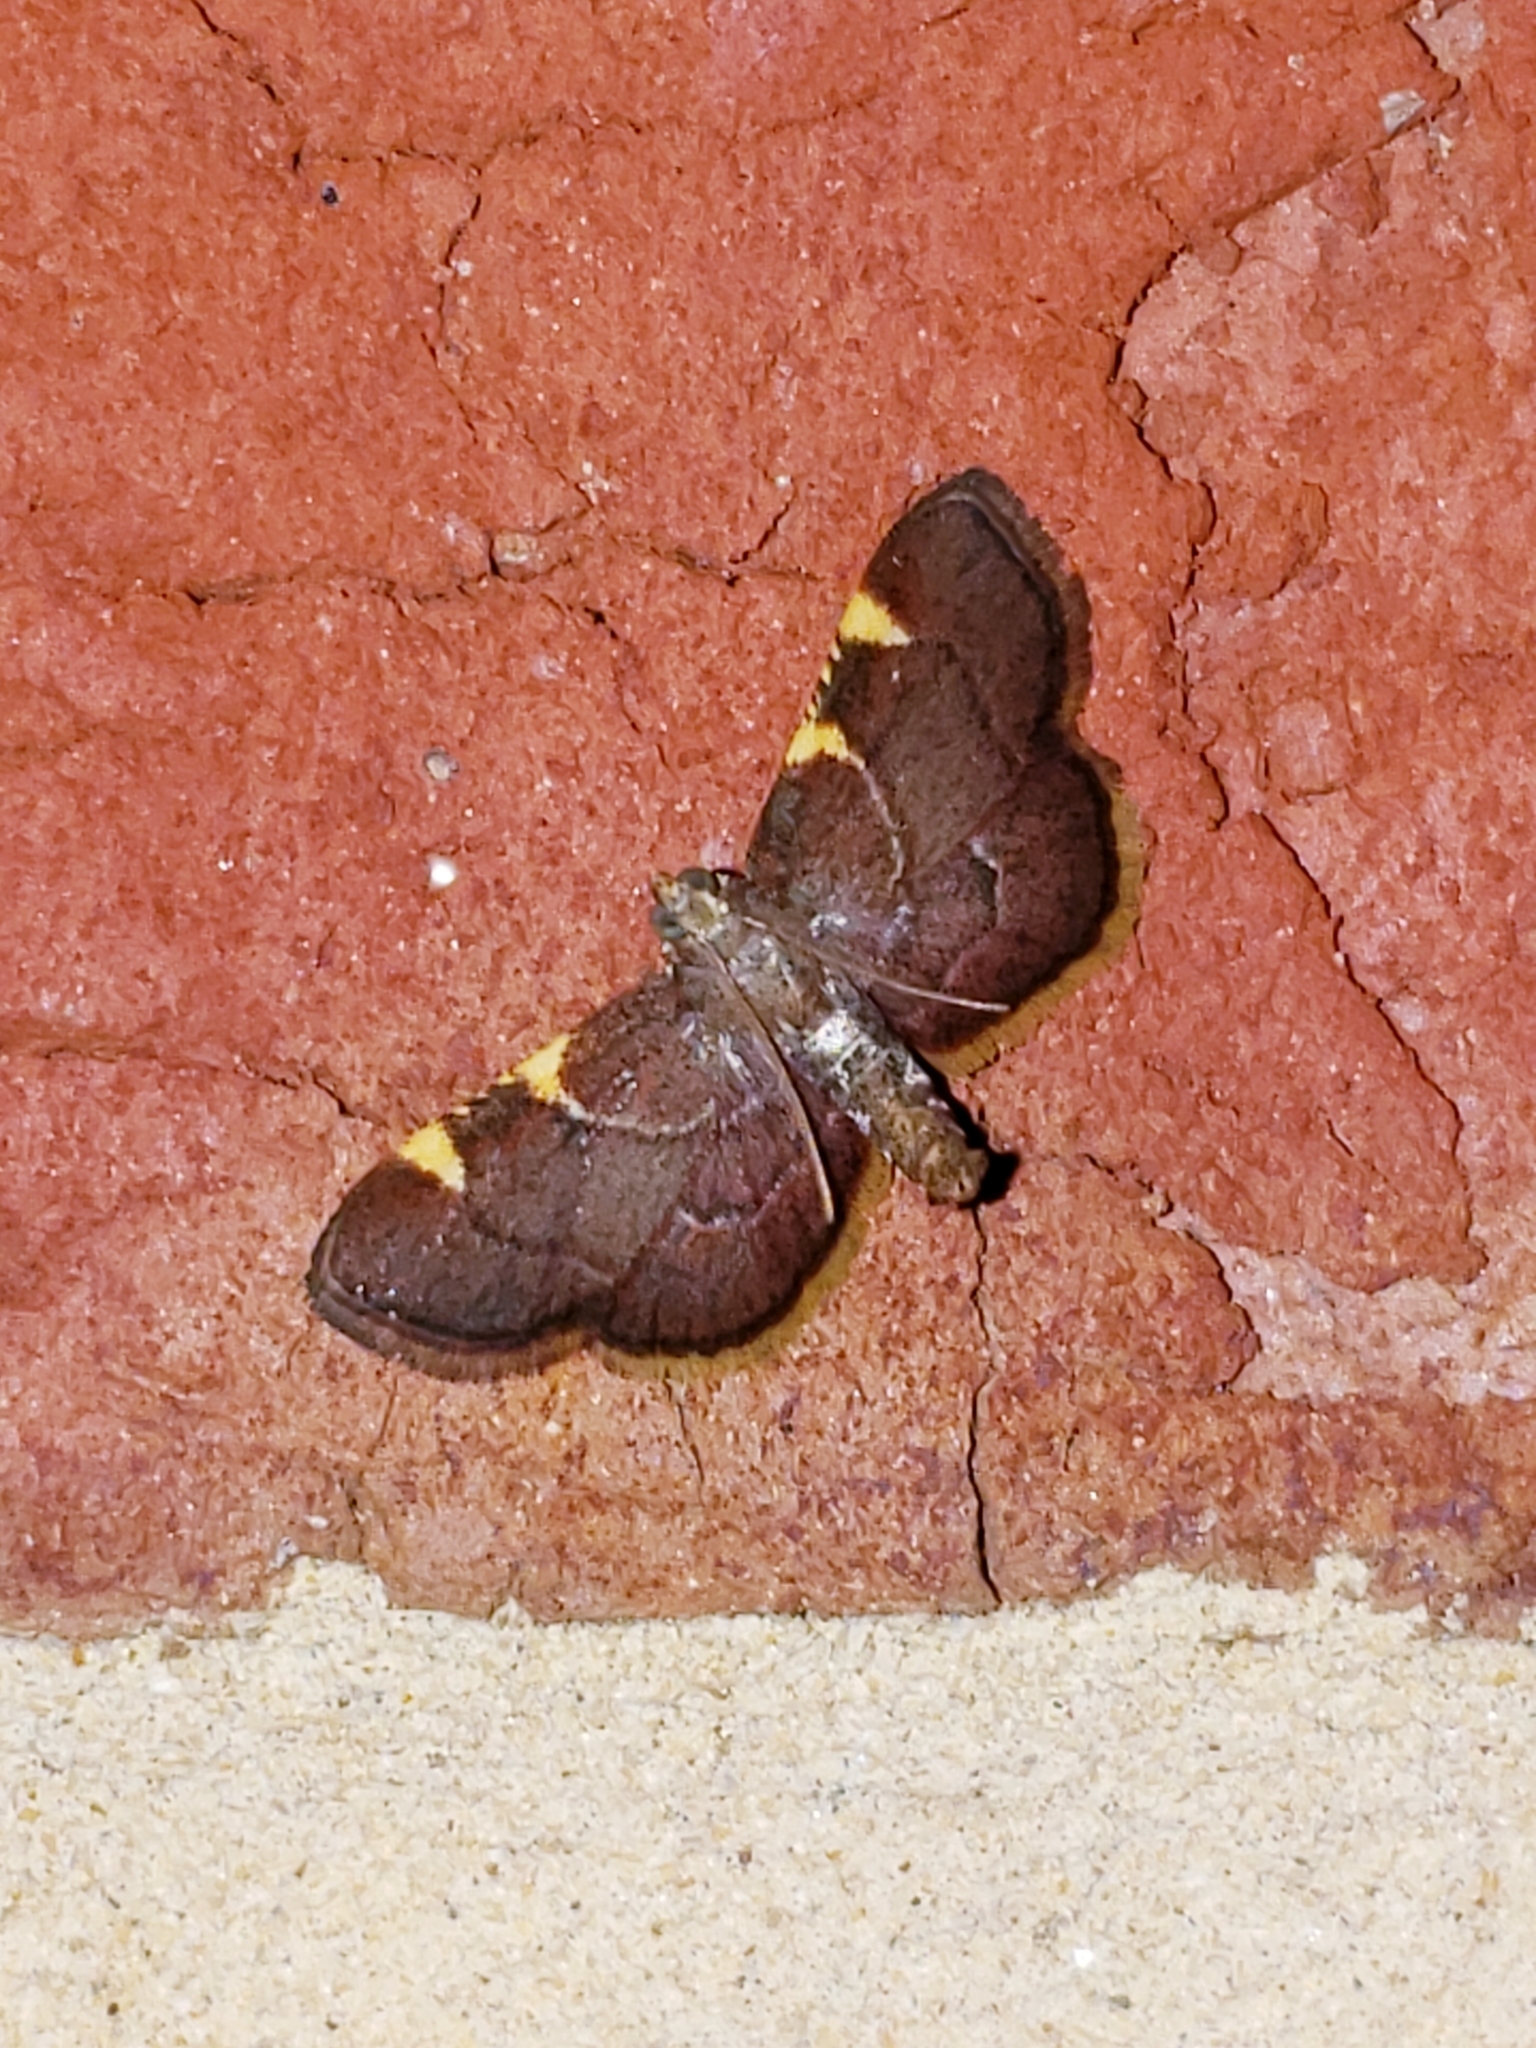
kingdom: Animalia
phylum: Arthropoda
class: Insecta
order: Lepidoptera
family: Pyralidae
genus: Hypsopygia
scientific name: Hypsopygia olinalis
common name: Yellow-fringed dolichomia moth
